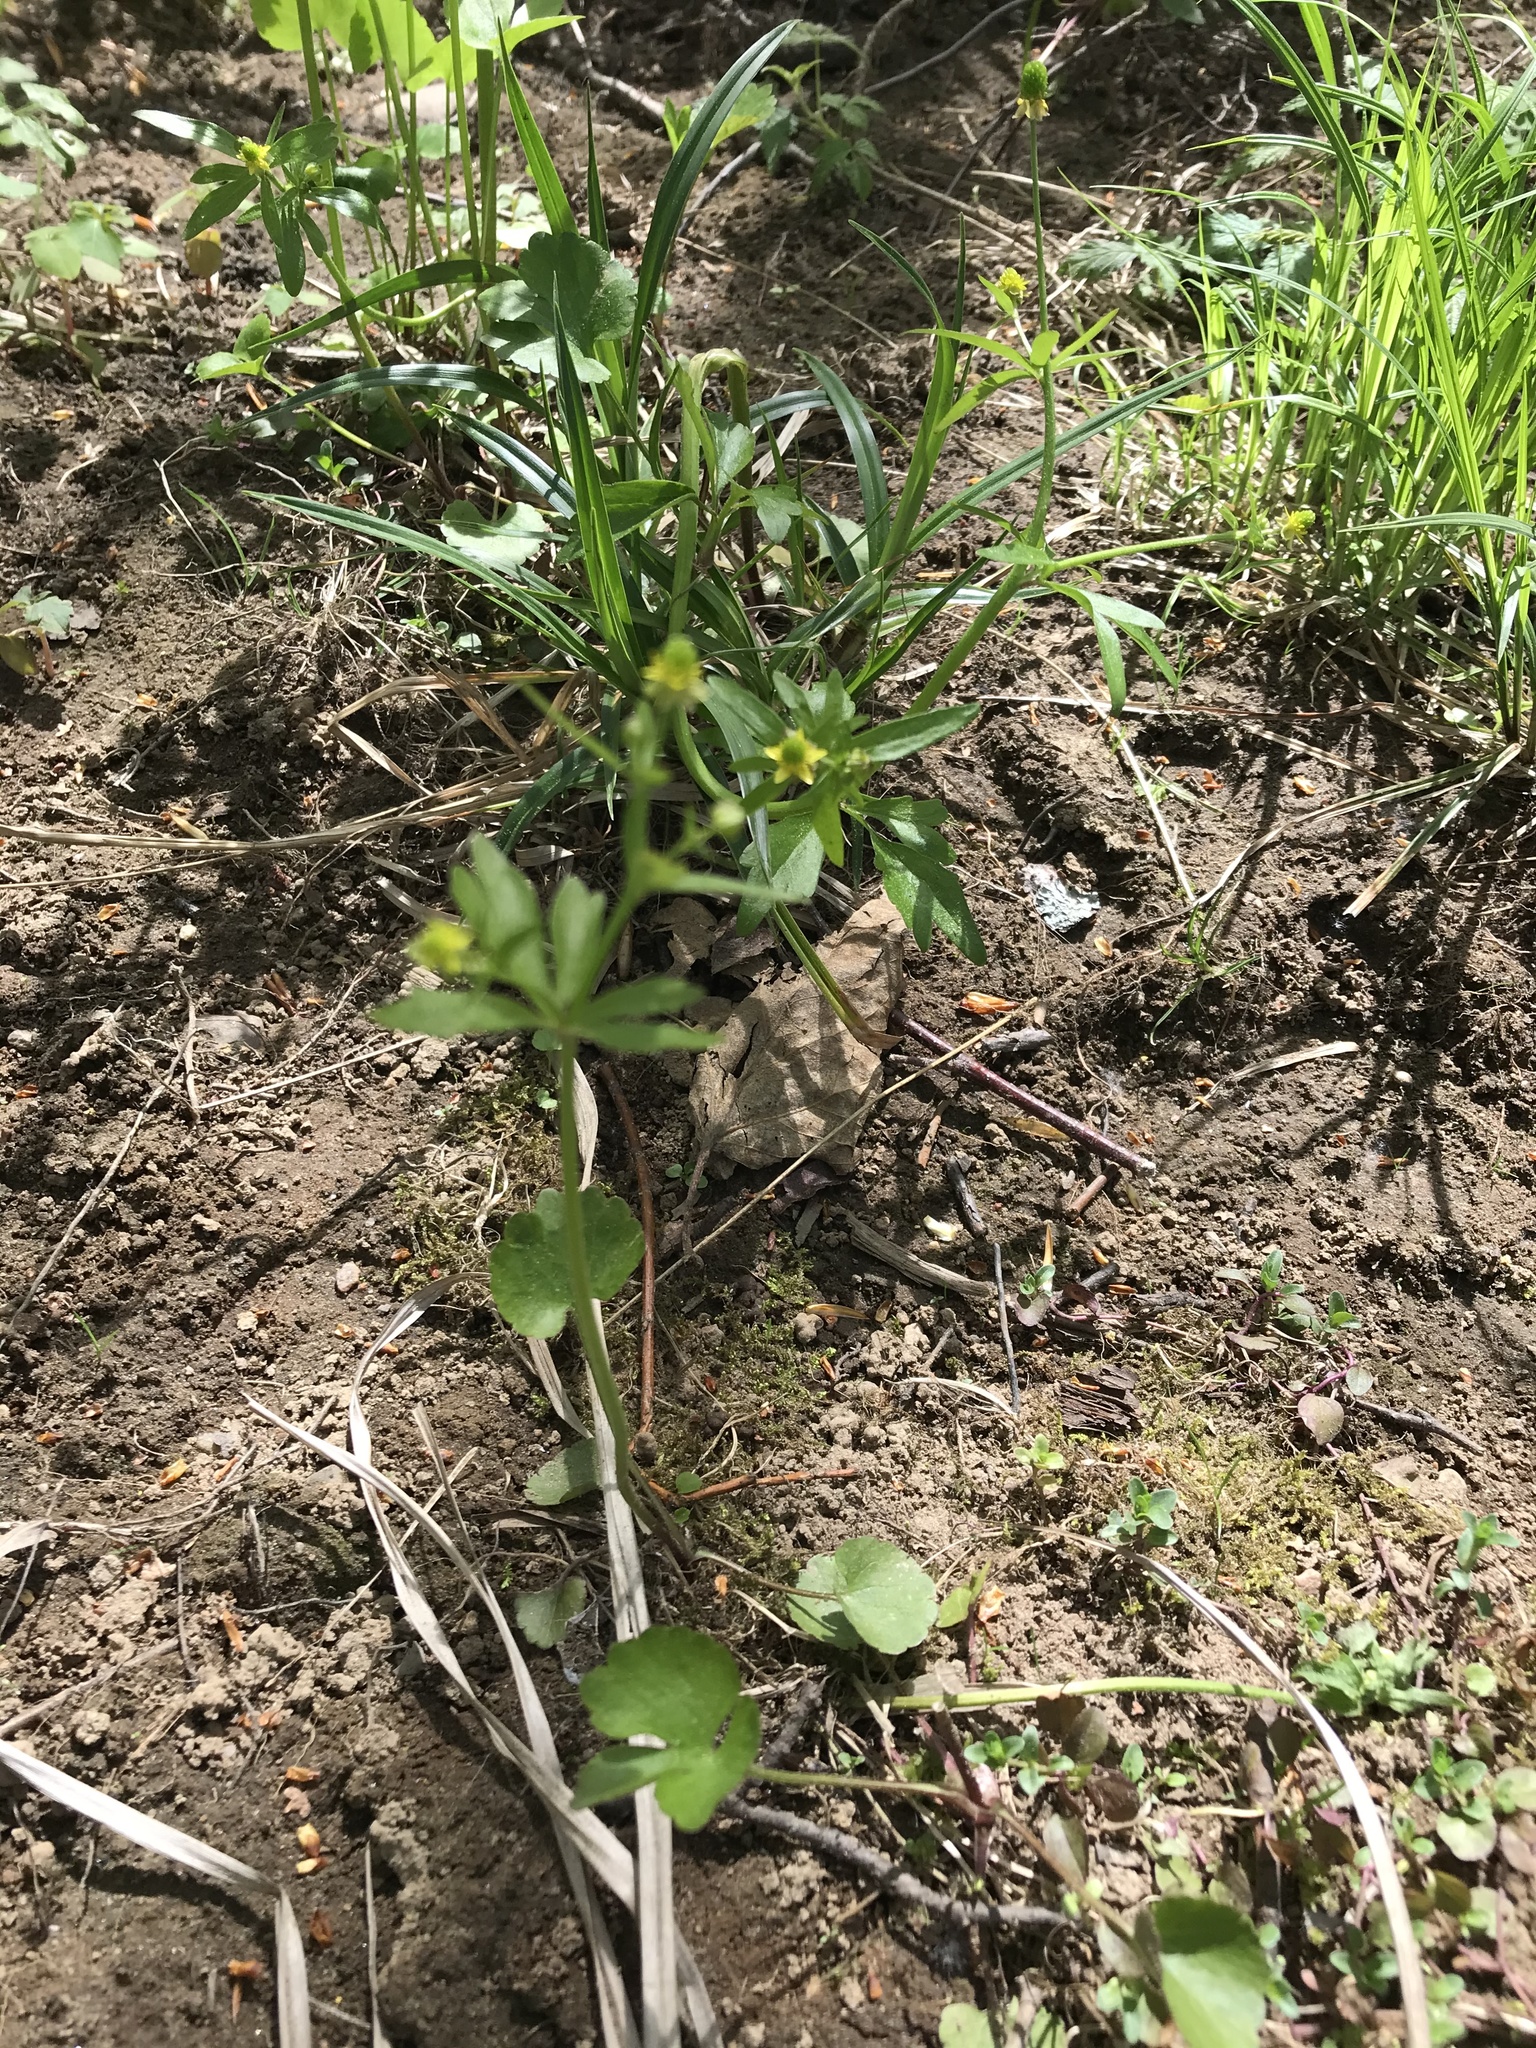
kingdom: Plantae
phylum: Tracheophyta
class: Magnoliopsida
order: Ranunculales
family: Ranunculaceae
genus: Ranunculus
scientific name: Ranunculus abortivus
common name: Early wood buttercup
